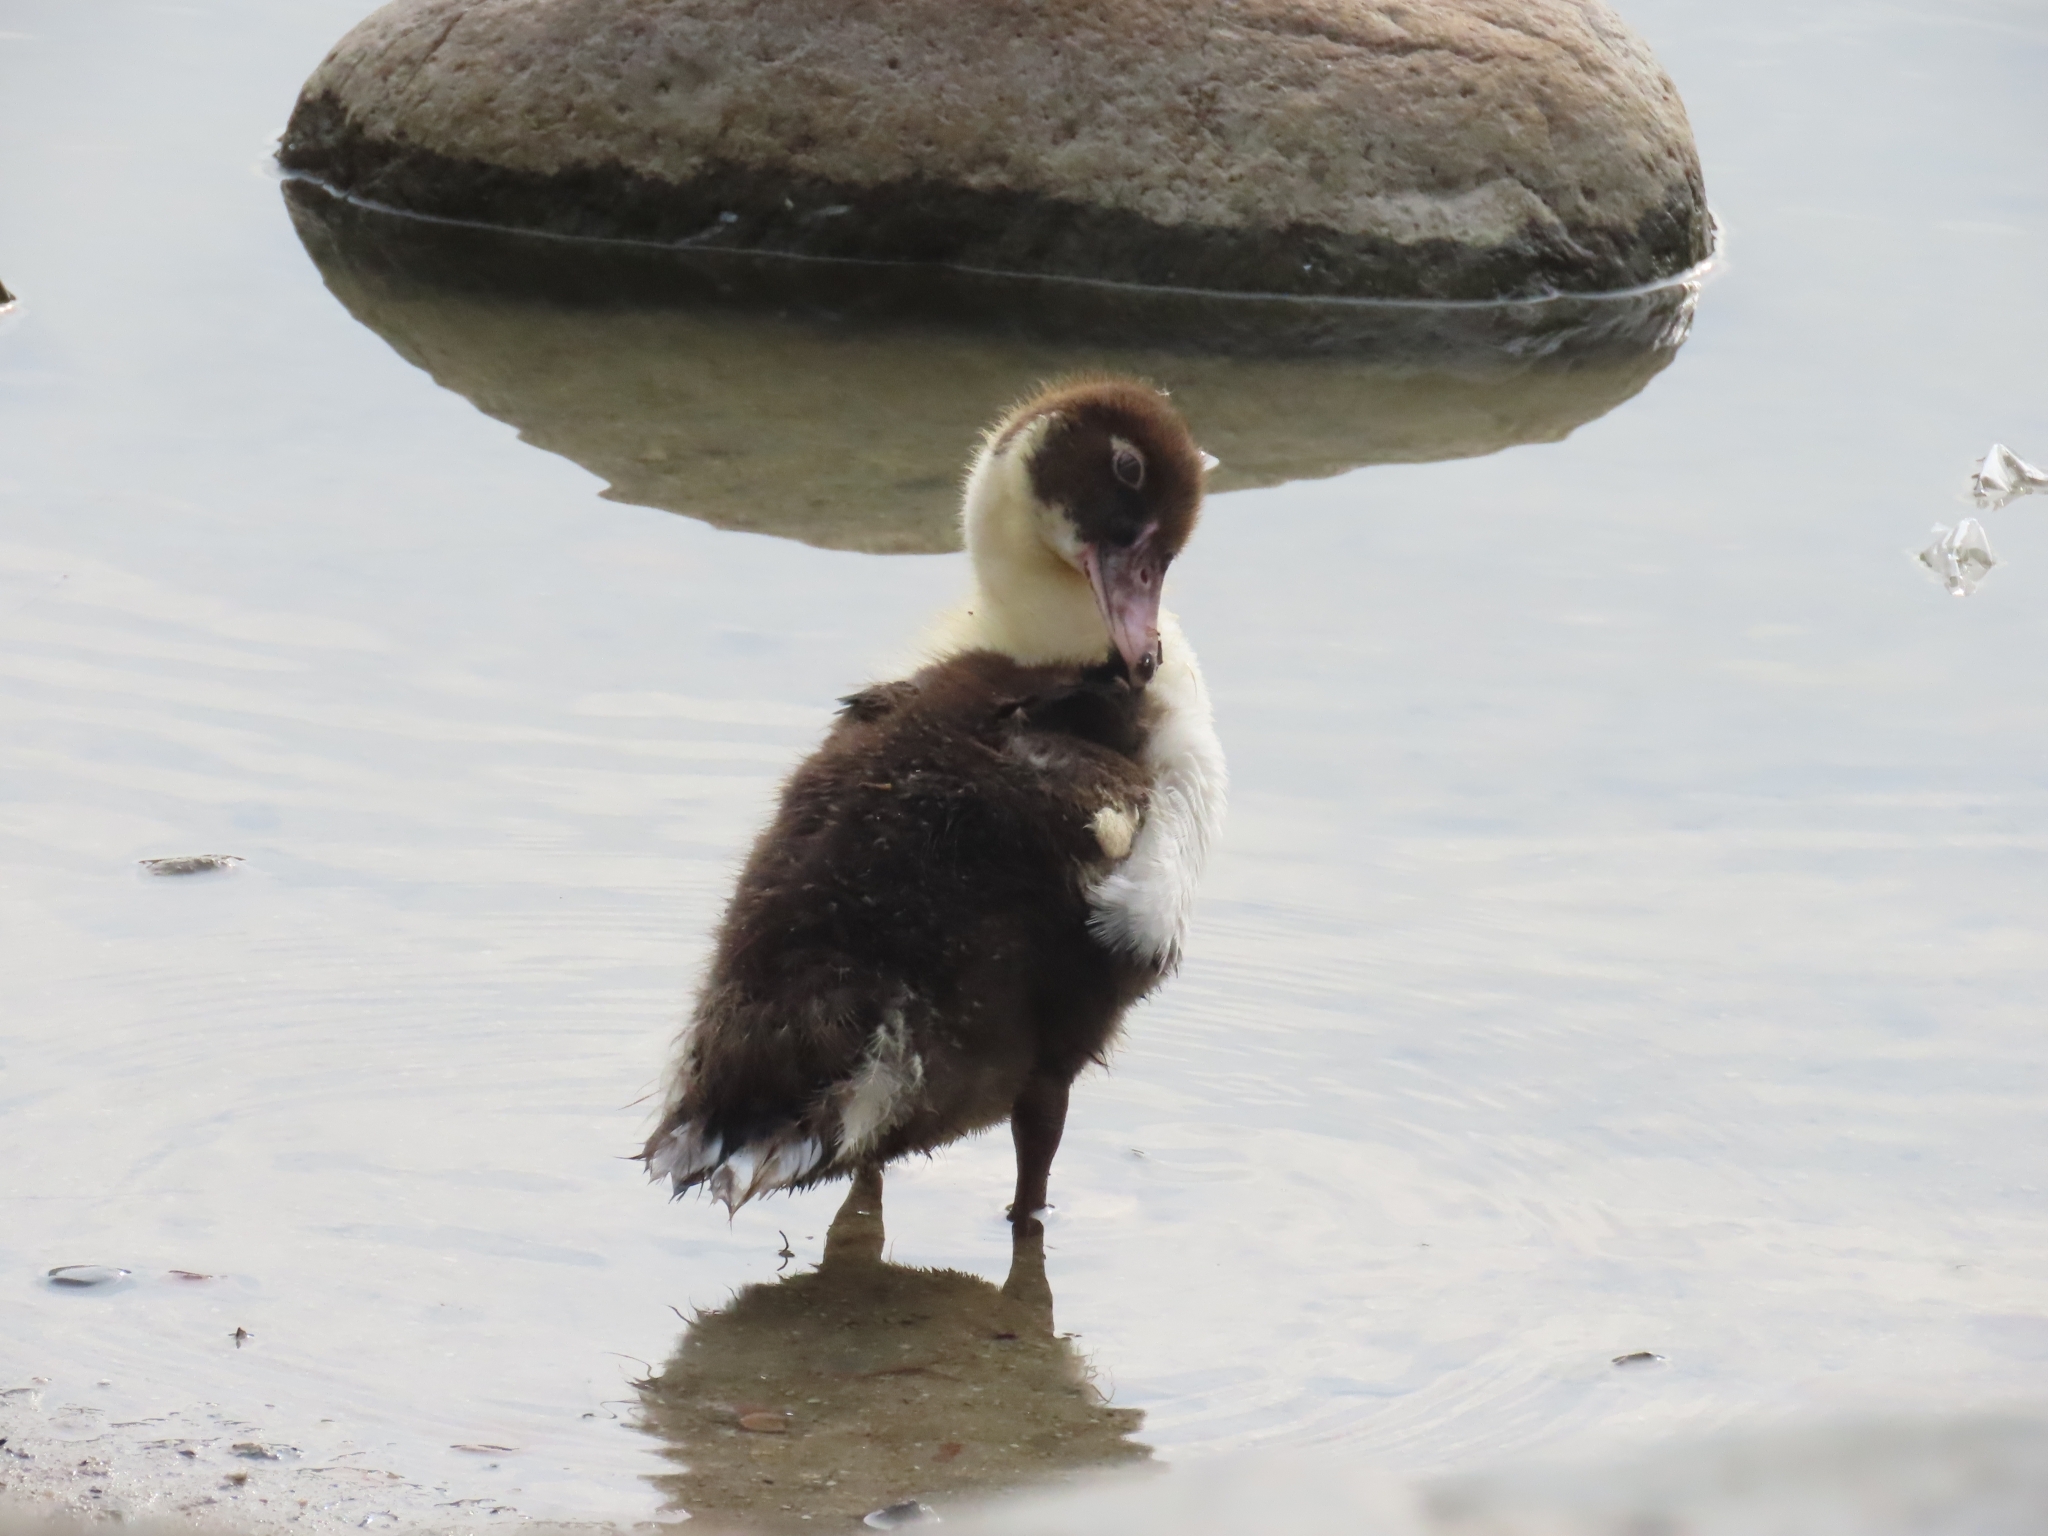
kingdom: Animalia
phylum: Chordata
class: Aves
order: Anseriformes
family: Anatidae
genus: Cairina
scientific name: Cairina moschata
